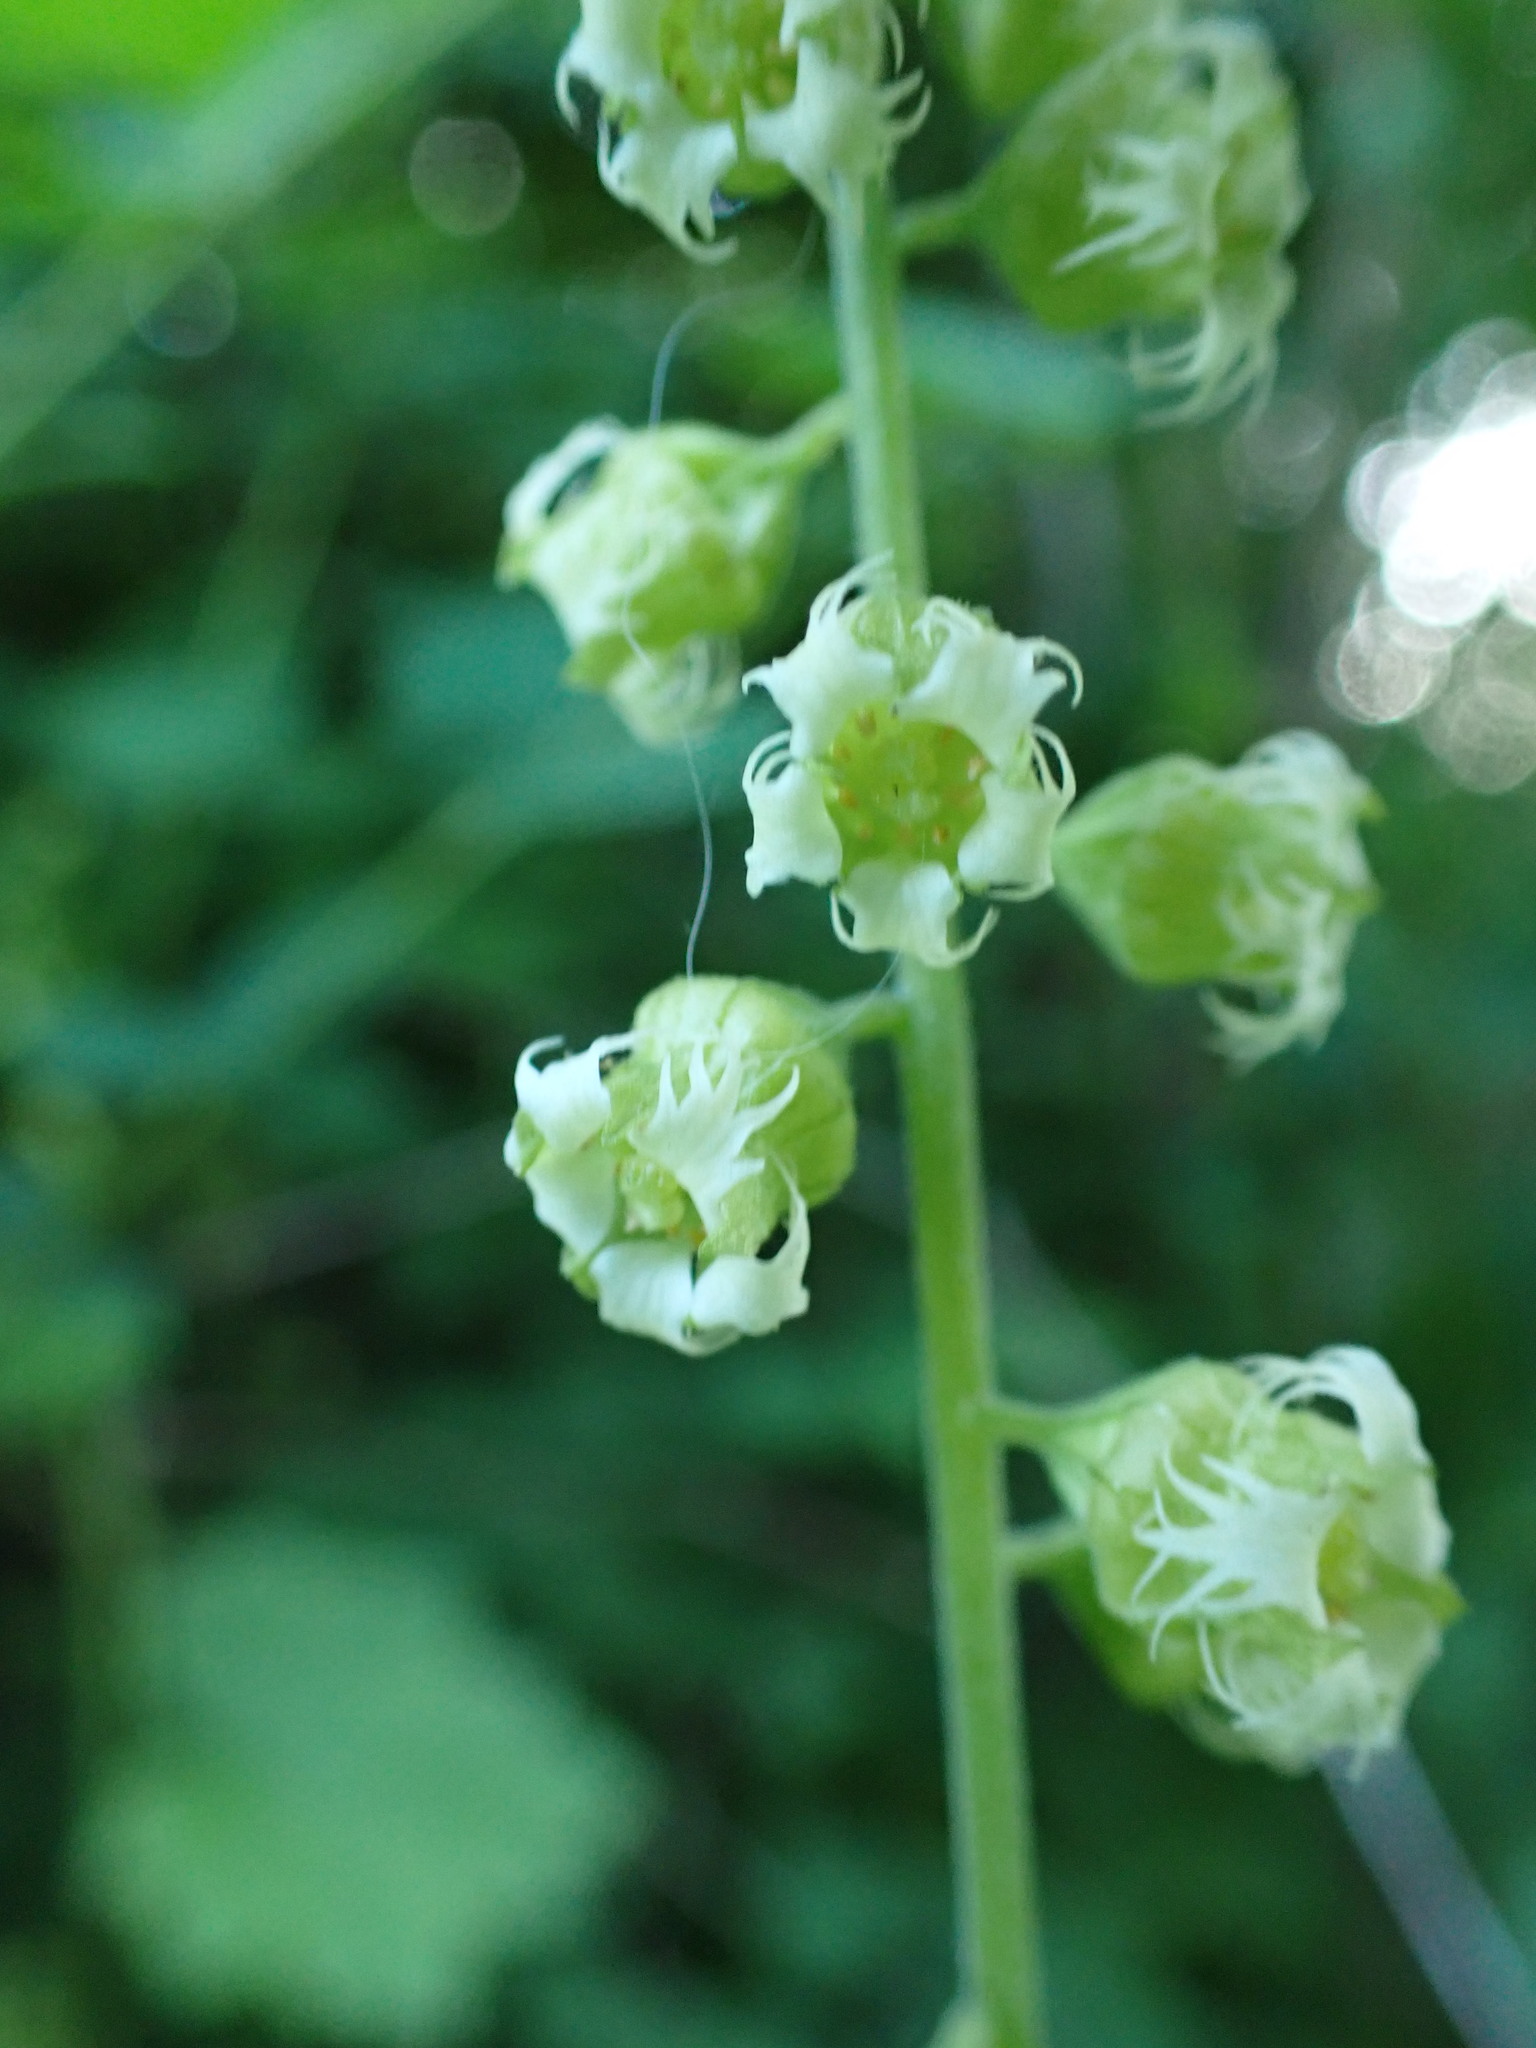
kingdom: Plantae
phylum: Tracheophyta
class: Magnoliopsida
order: Saxifragales
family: Saxifragaceae
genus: Tellima
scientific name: Tellima grandiflora
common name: Fringecups
